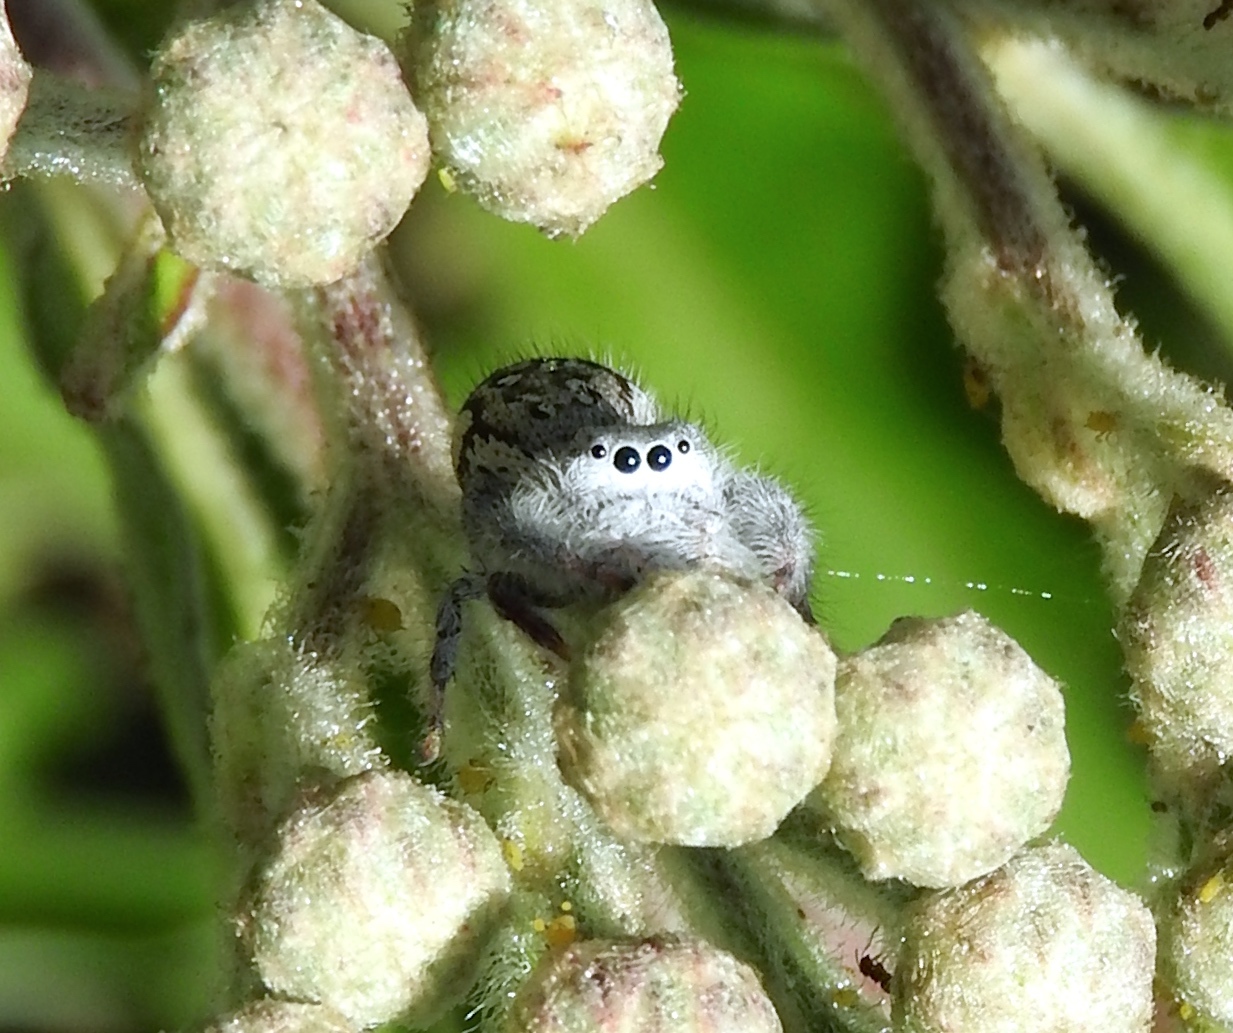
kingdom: Animalia
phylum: Arthropoda
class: Arachnida
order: Araneae
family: Salticidae
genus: Paraphidippus
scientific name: Paraphidippus fartilis
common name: Jumping spiders
